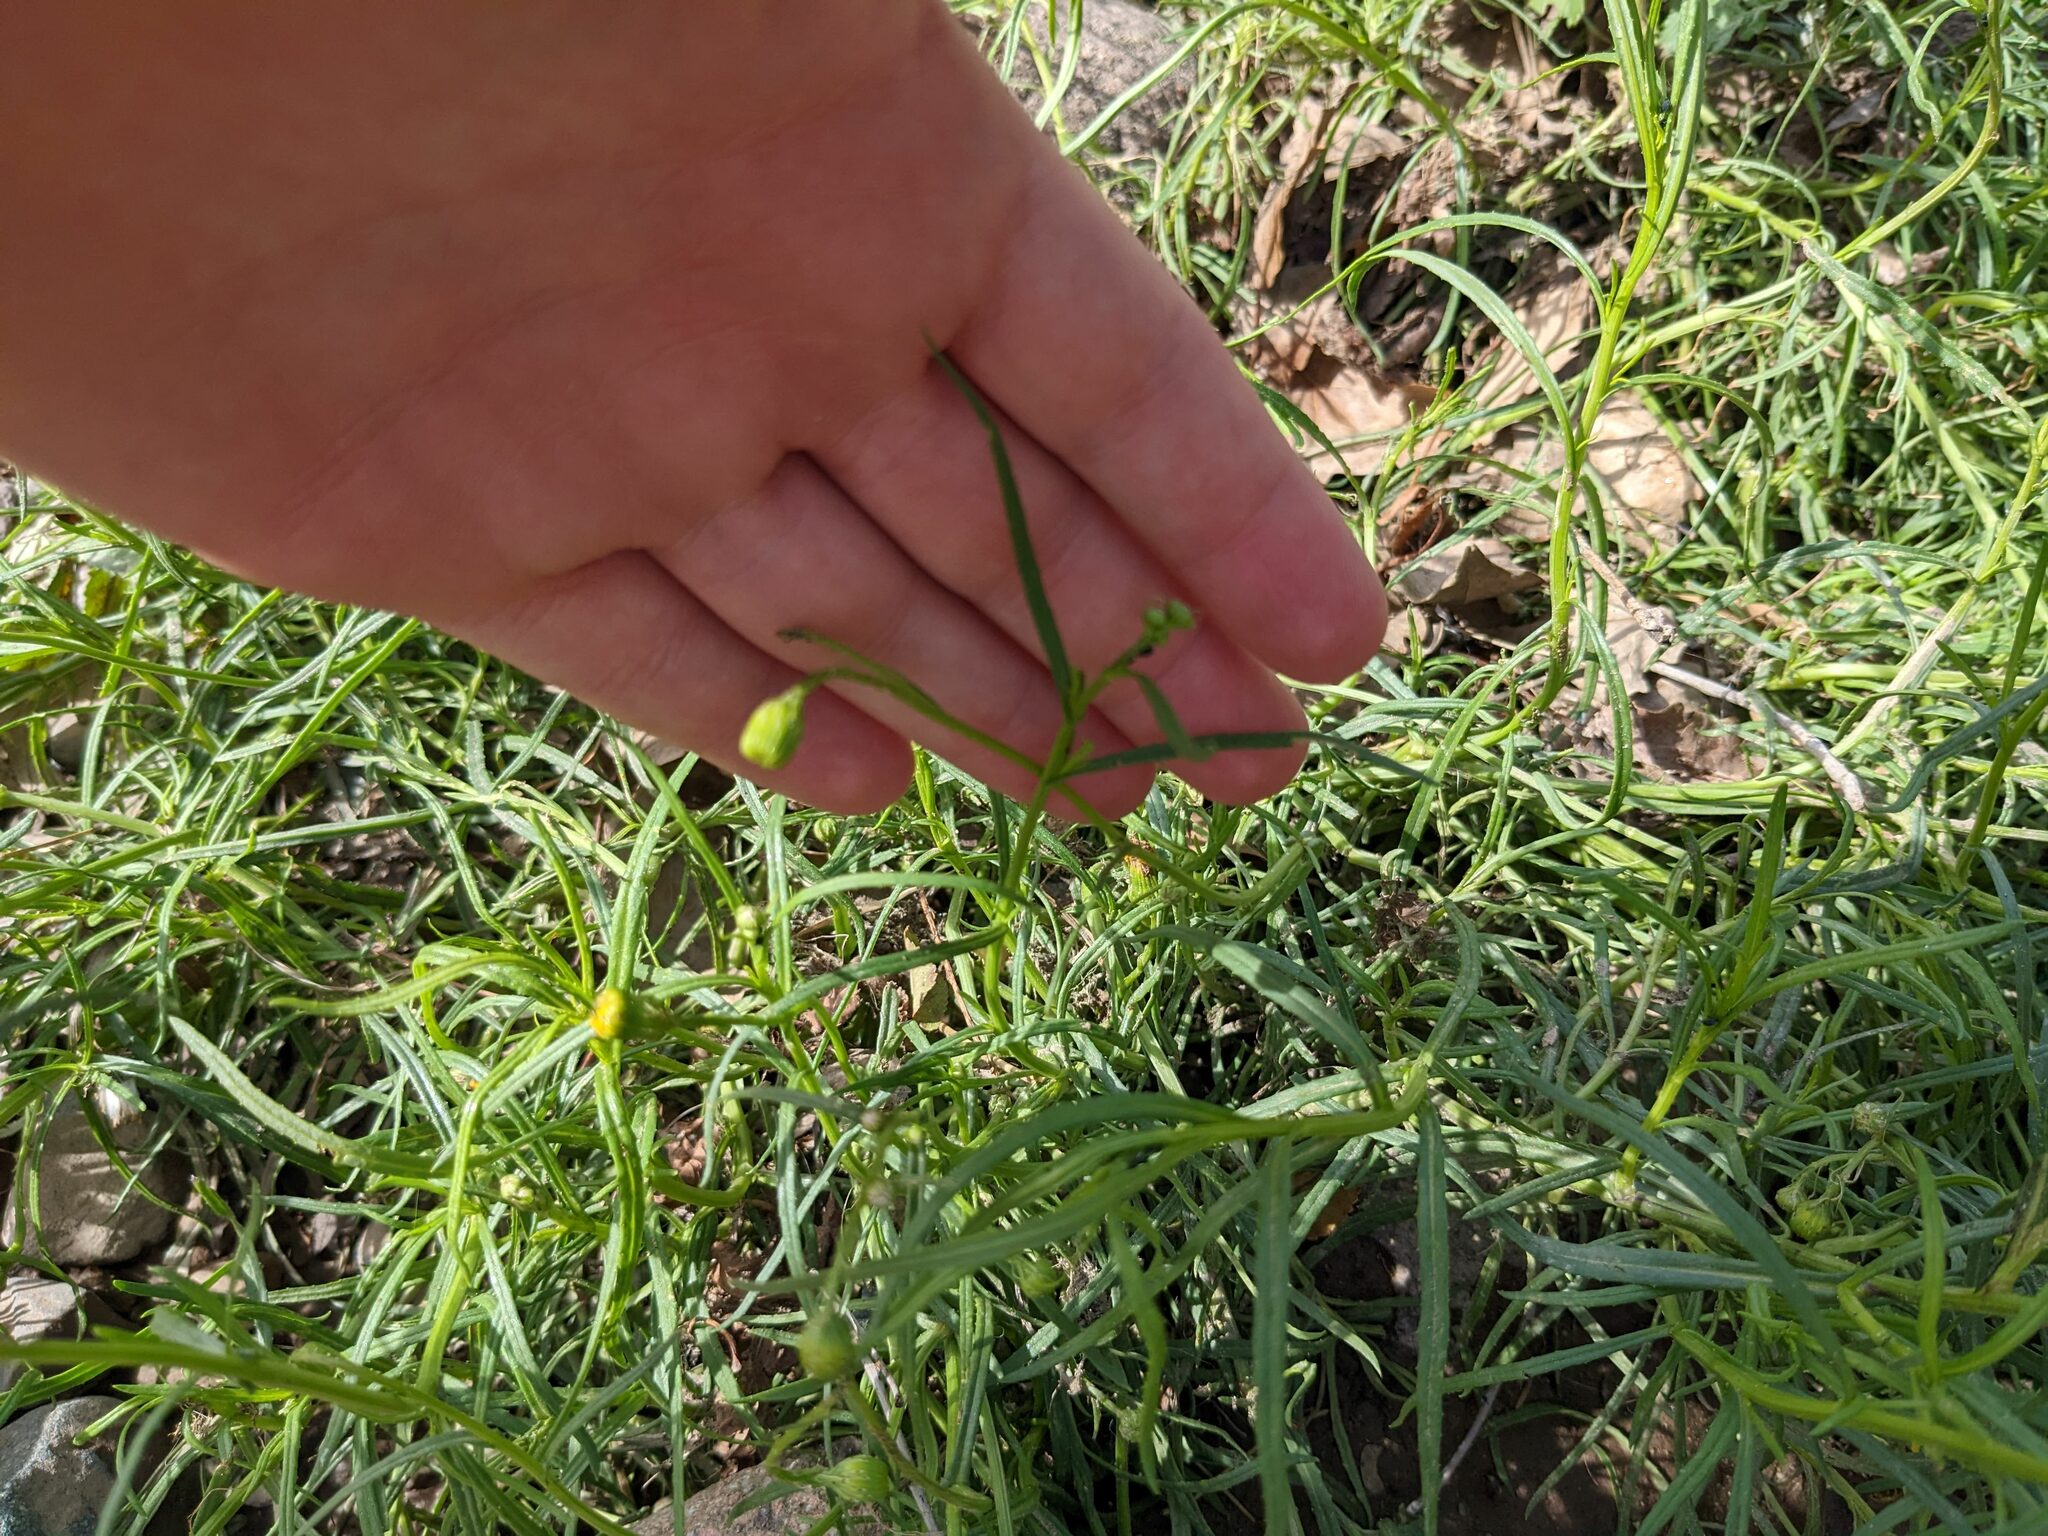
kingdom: Plantae
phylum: Tracheophyta
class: Magnoliopsida
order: Asterales
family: Asteraceae
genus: Senecio
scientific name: Senecio inaequidens
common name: Narrow-leaved ragwort
